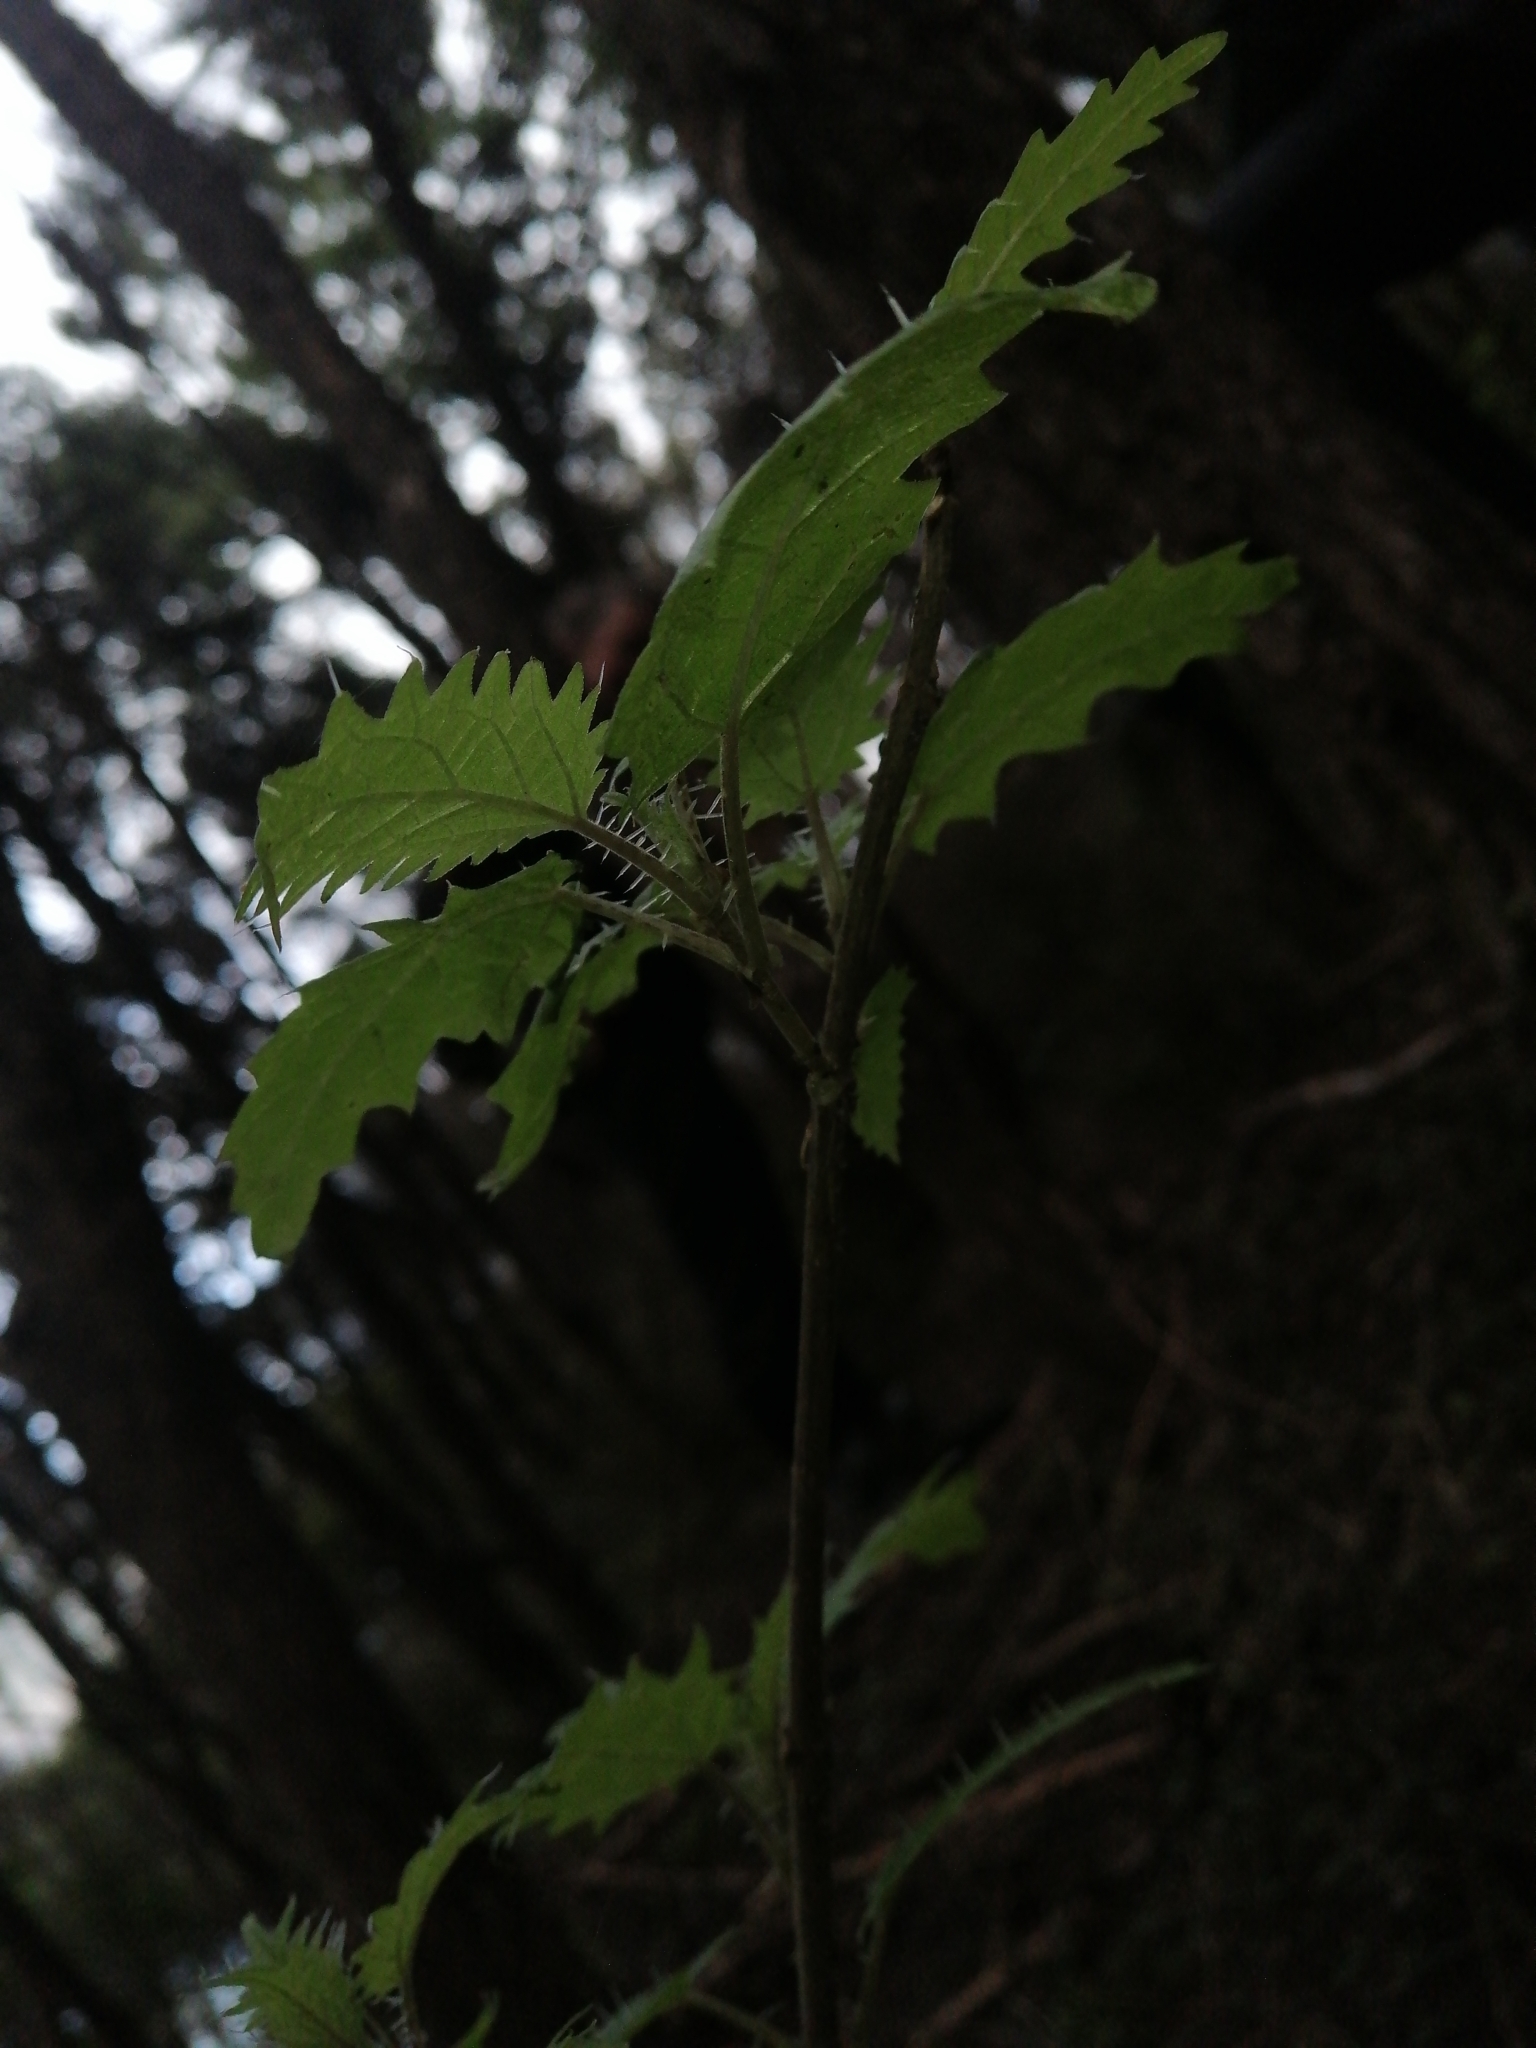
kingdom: Plantae
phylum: Tracheophyta
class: Magnoliopsida
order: Rosales
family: Urticaceae
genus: Urtica
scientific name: Urtica ferox
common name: Tree nettle
